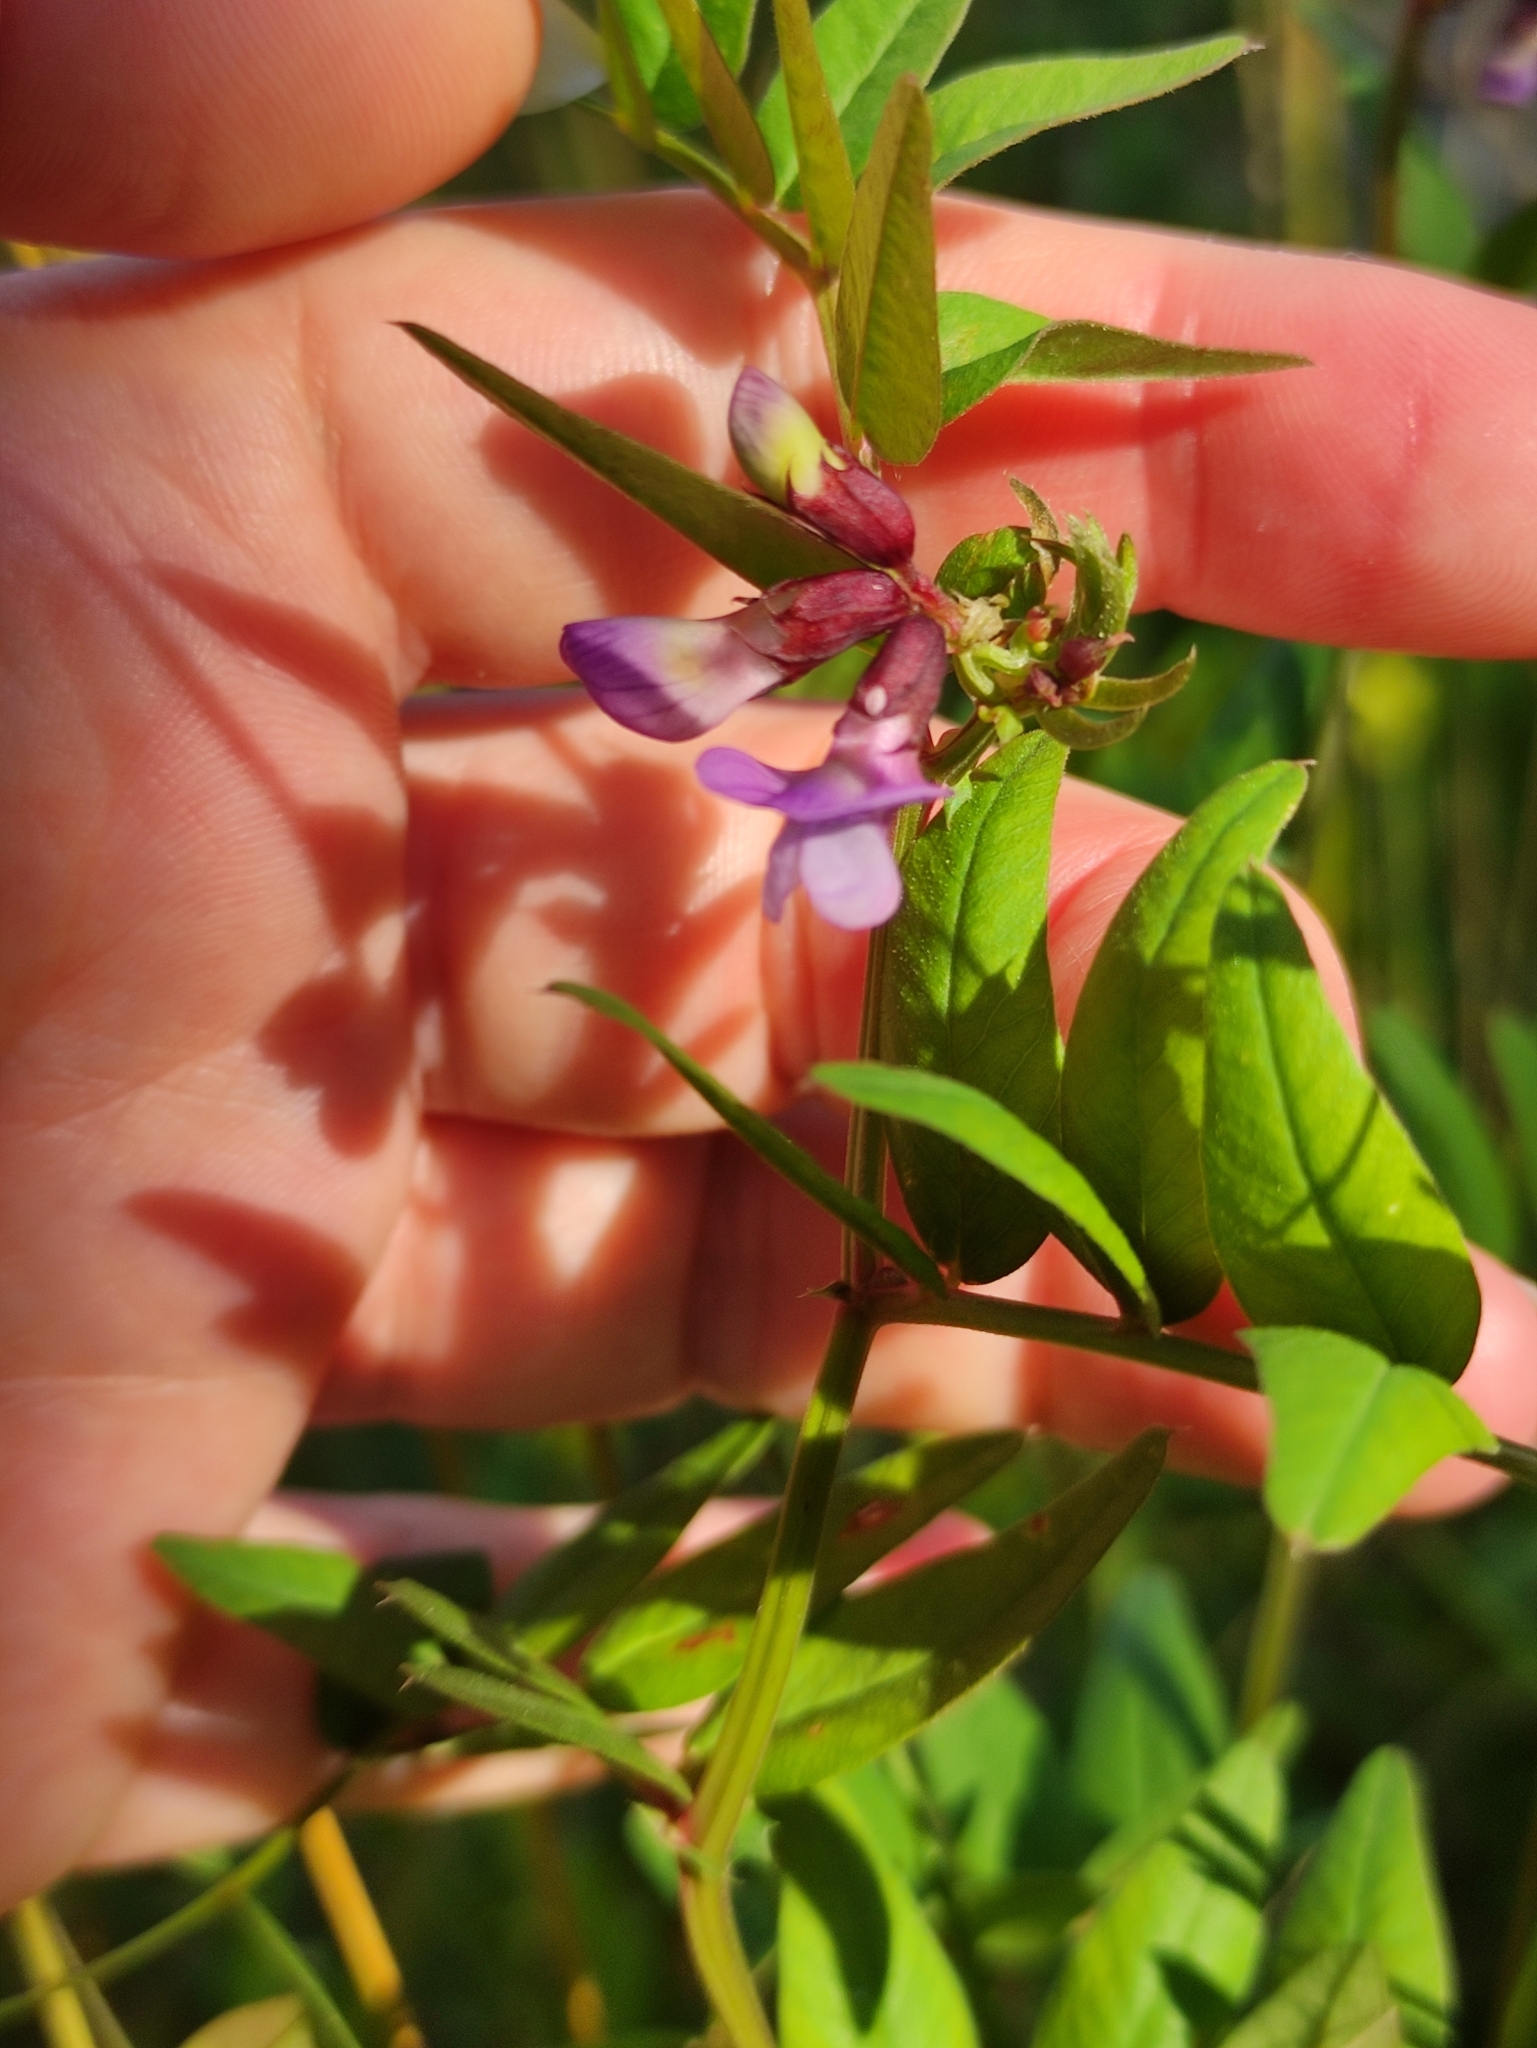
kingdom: Plantae
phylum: Tracheophyta
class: Magnoliopsida
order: Fabales
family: Fabaceae
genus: Vicia
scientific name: Vicia sepium
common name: Bush vetch
